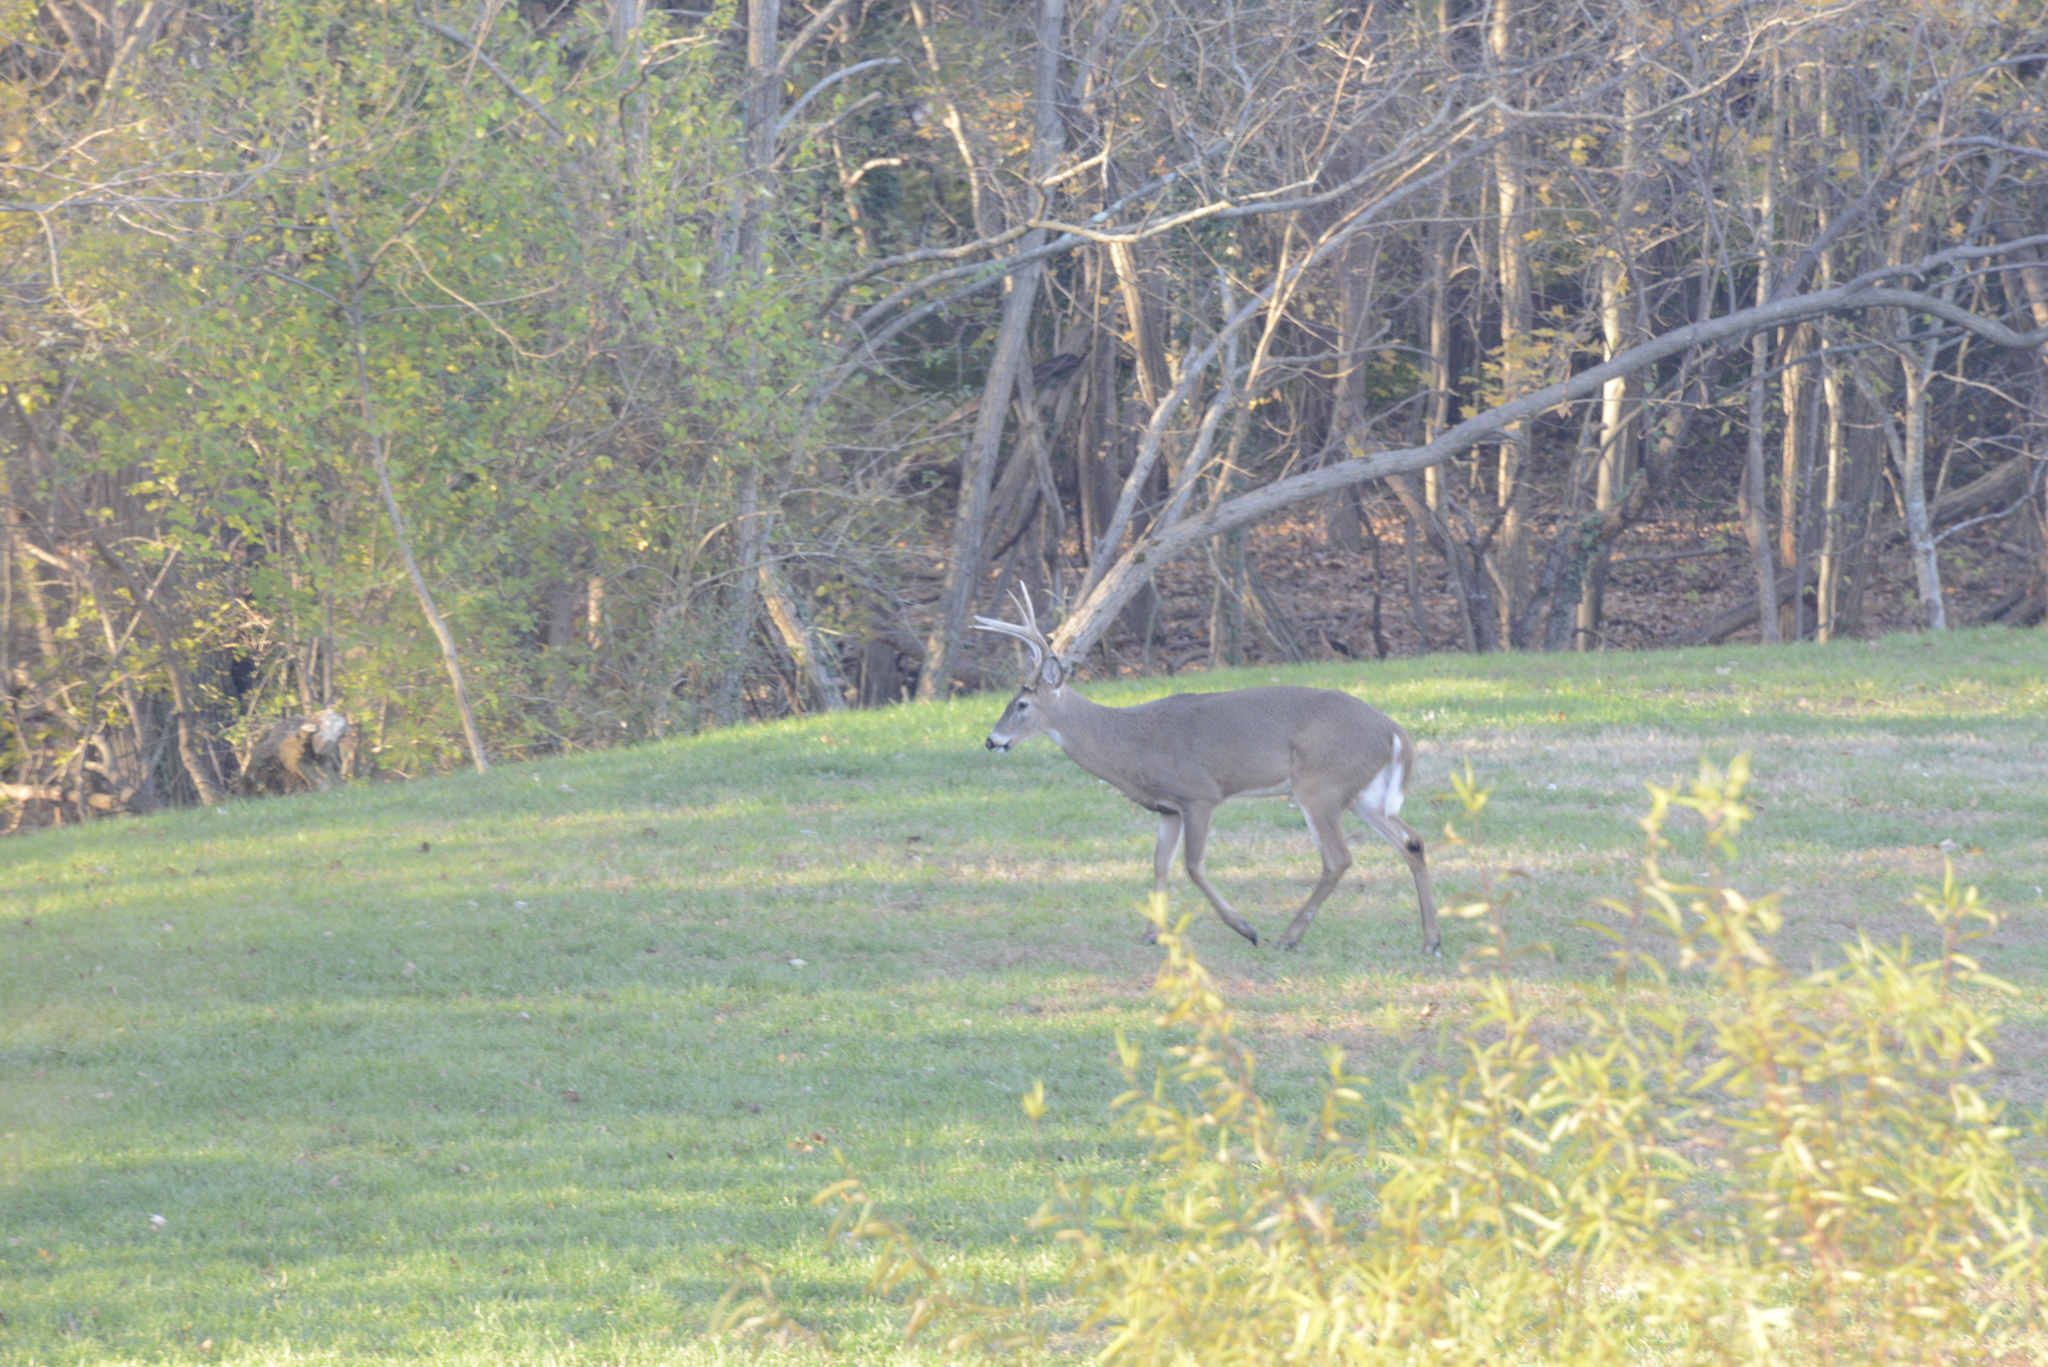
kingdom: Animalia
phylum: Chordata
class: Mammalia
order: Artiodactyla
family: Cervidae
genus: Odocoileus
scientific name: Odocoileus virginianus
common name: White-tailed deer
